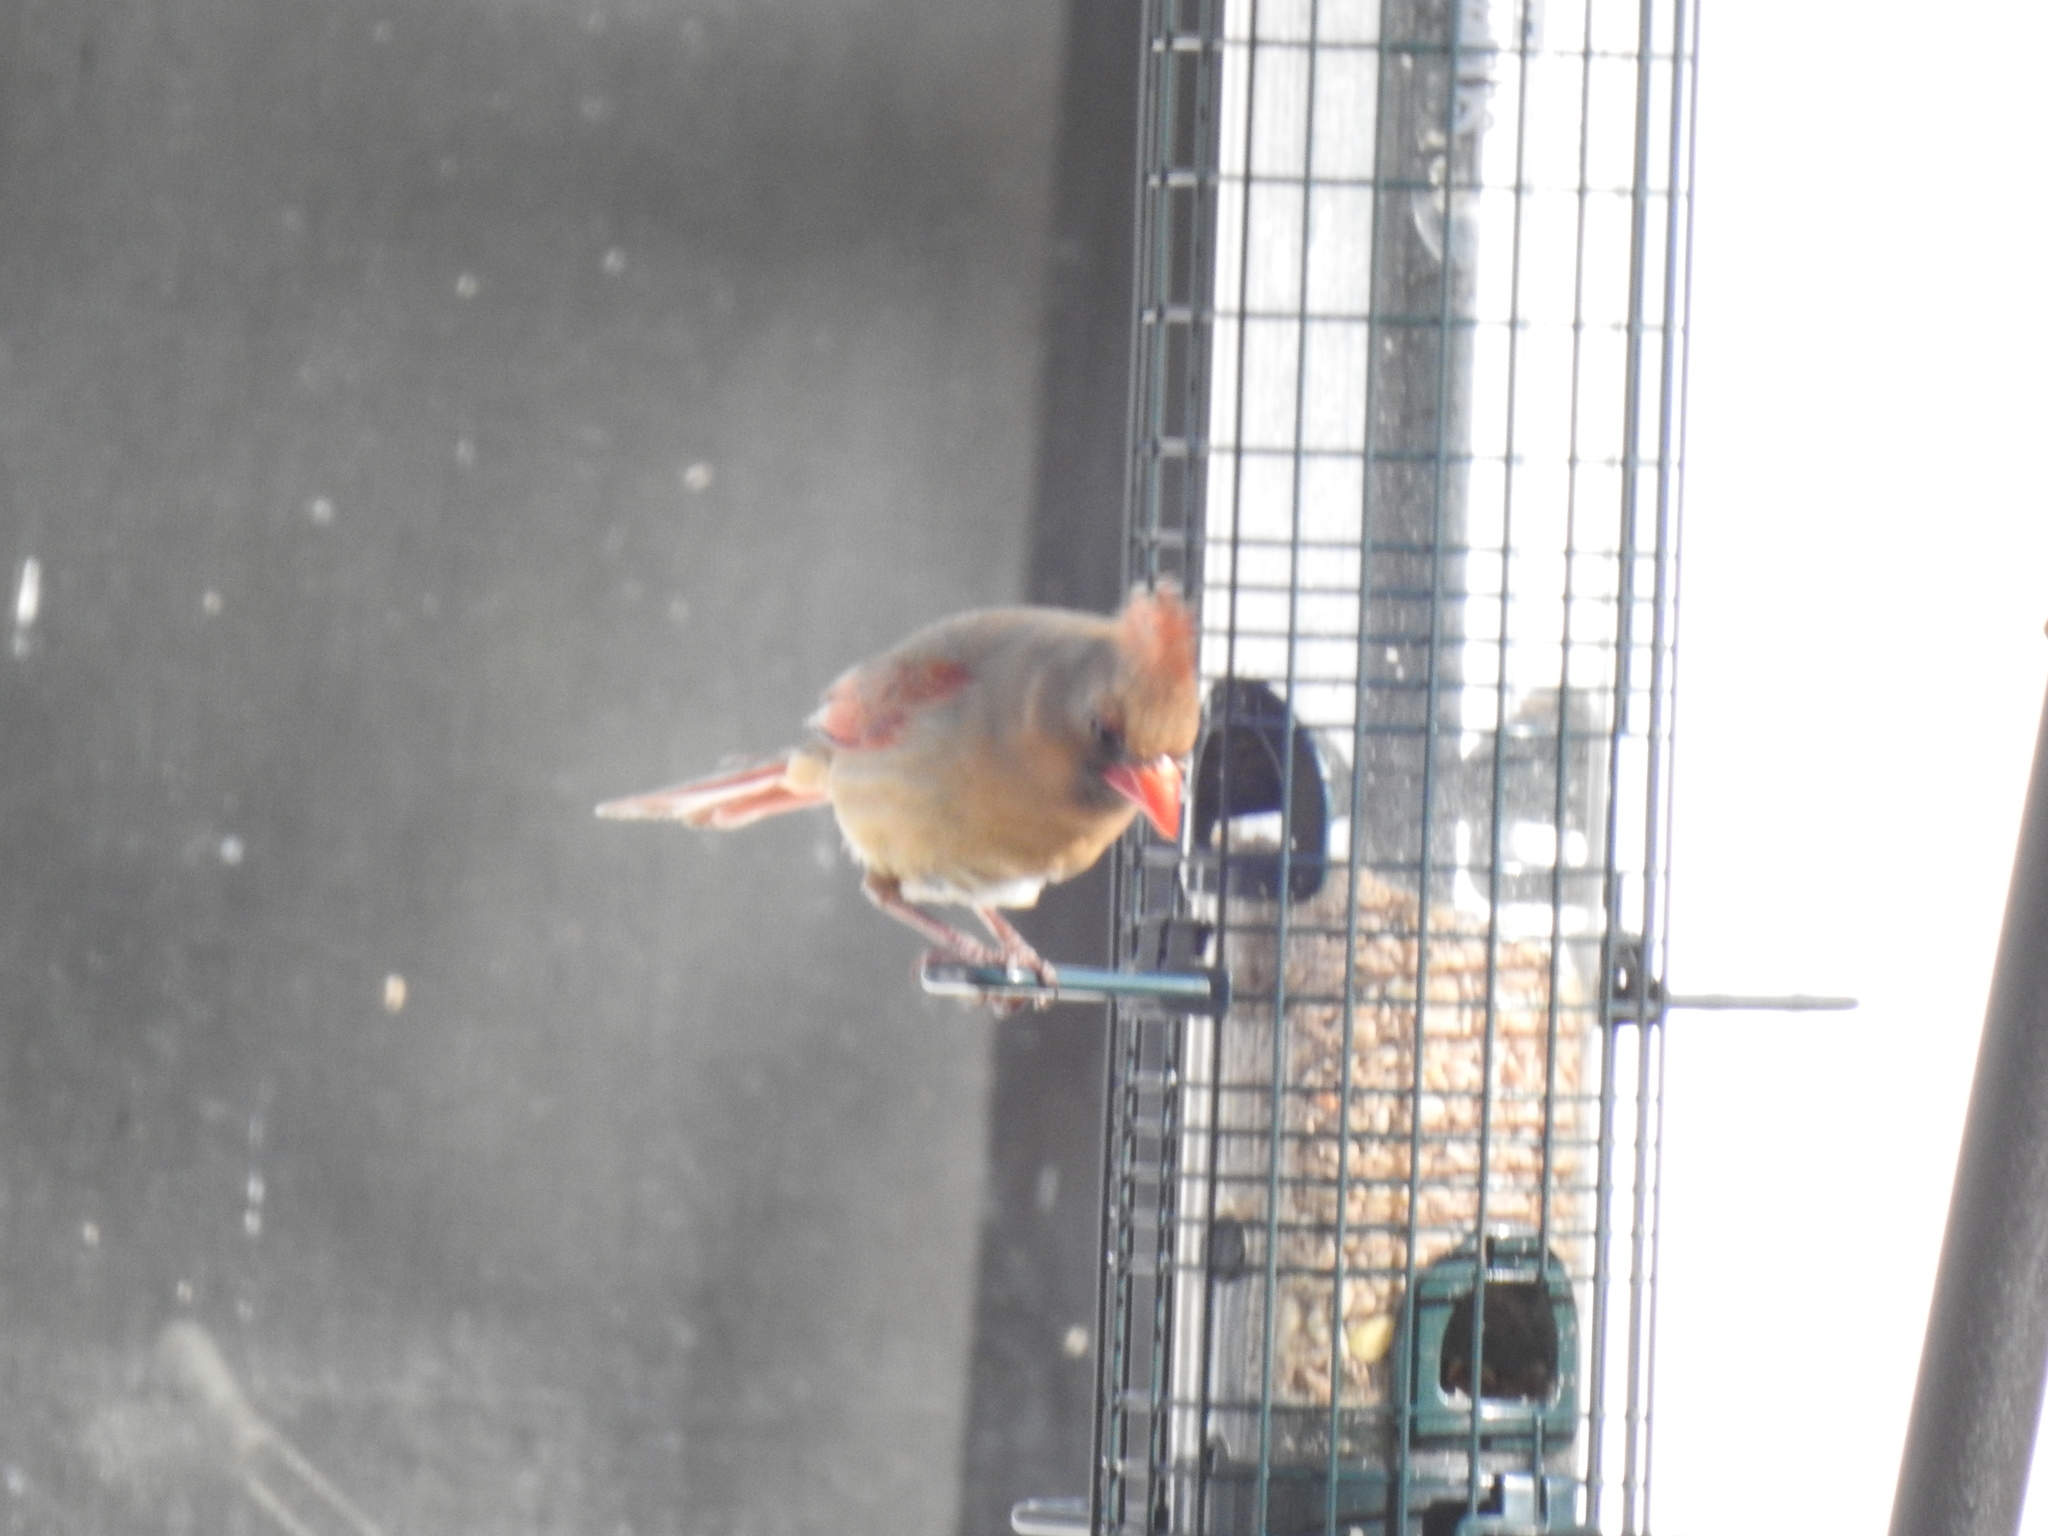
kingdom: Animalia
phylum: Chordata
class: Aves
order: Passeriformes
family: Cardinalidae
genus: Cardinalis
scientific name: Cardinalis cardinalis
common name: Northern cardinal
